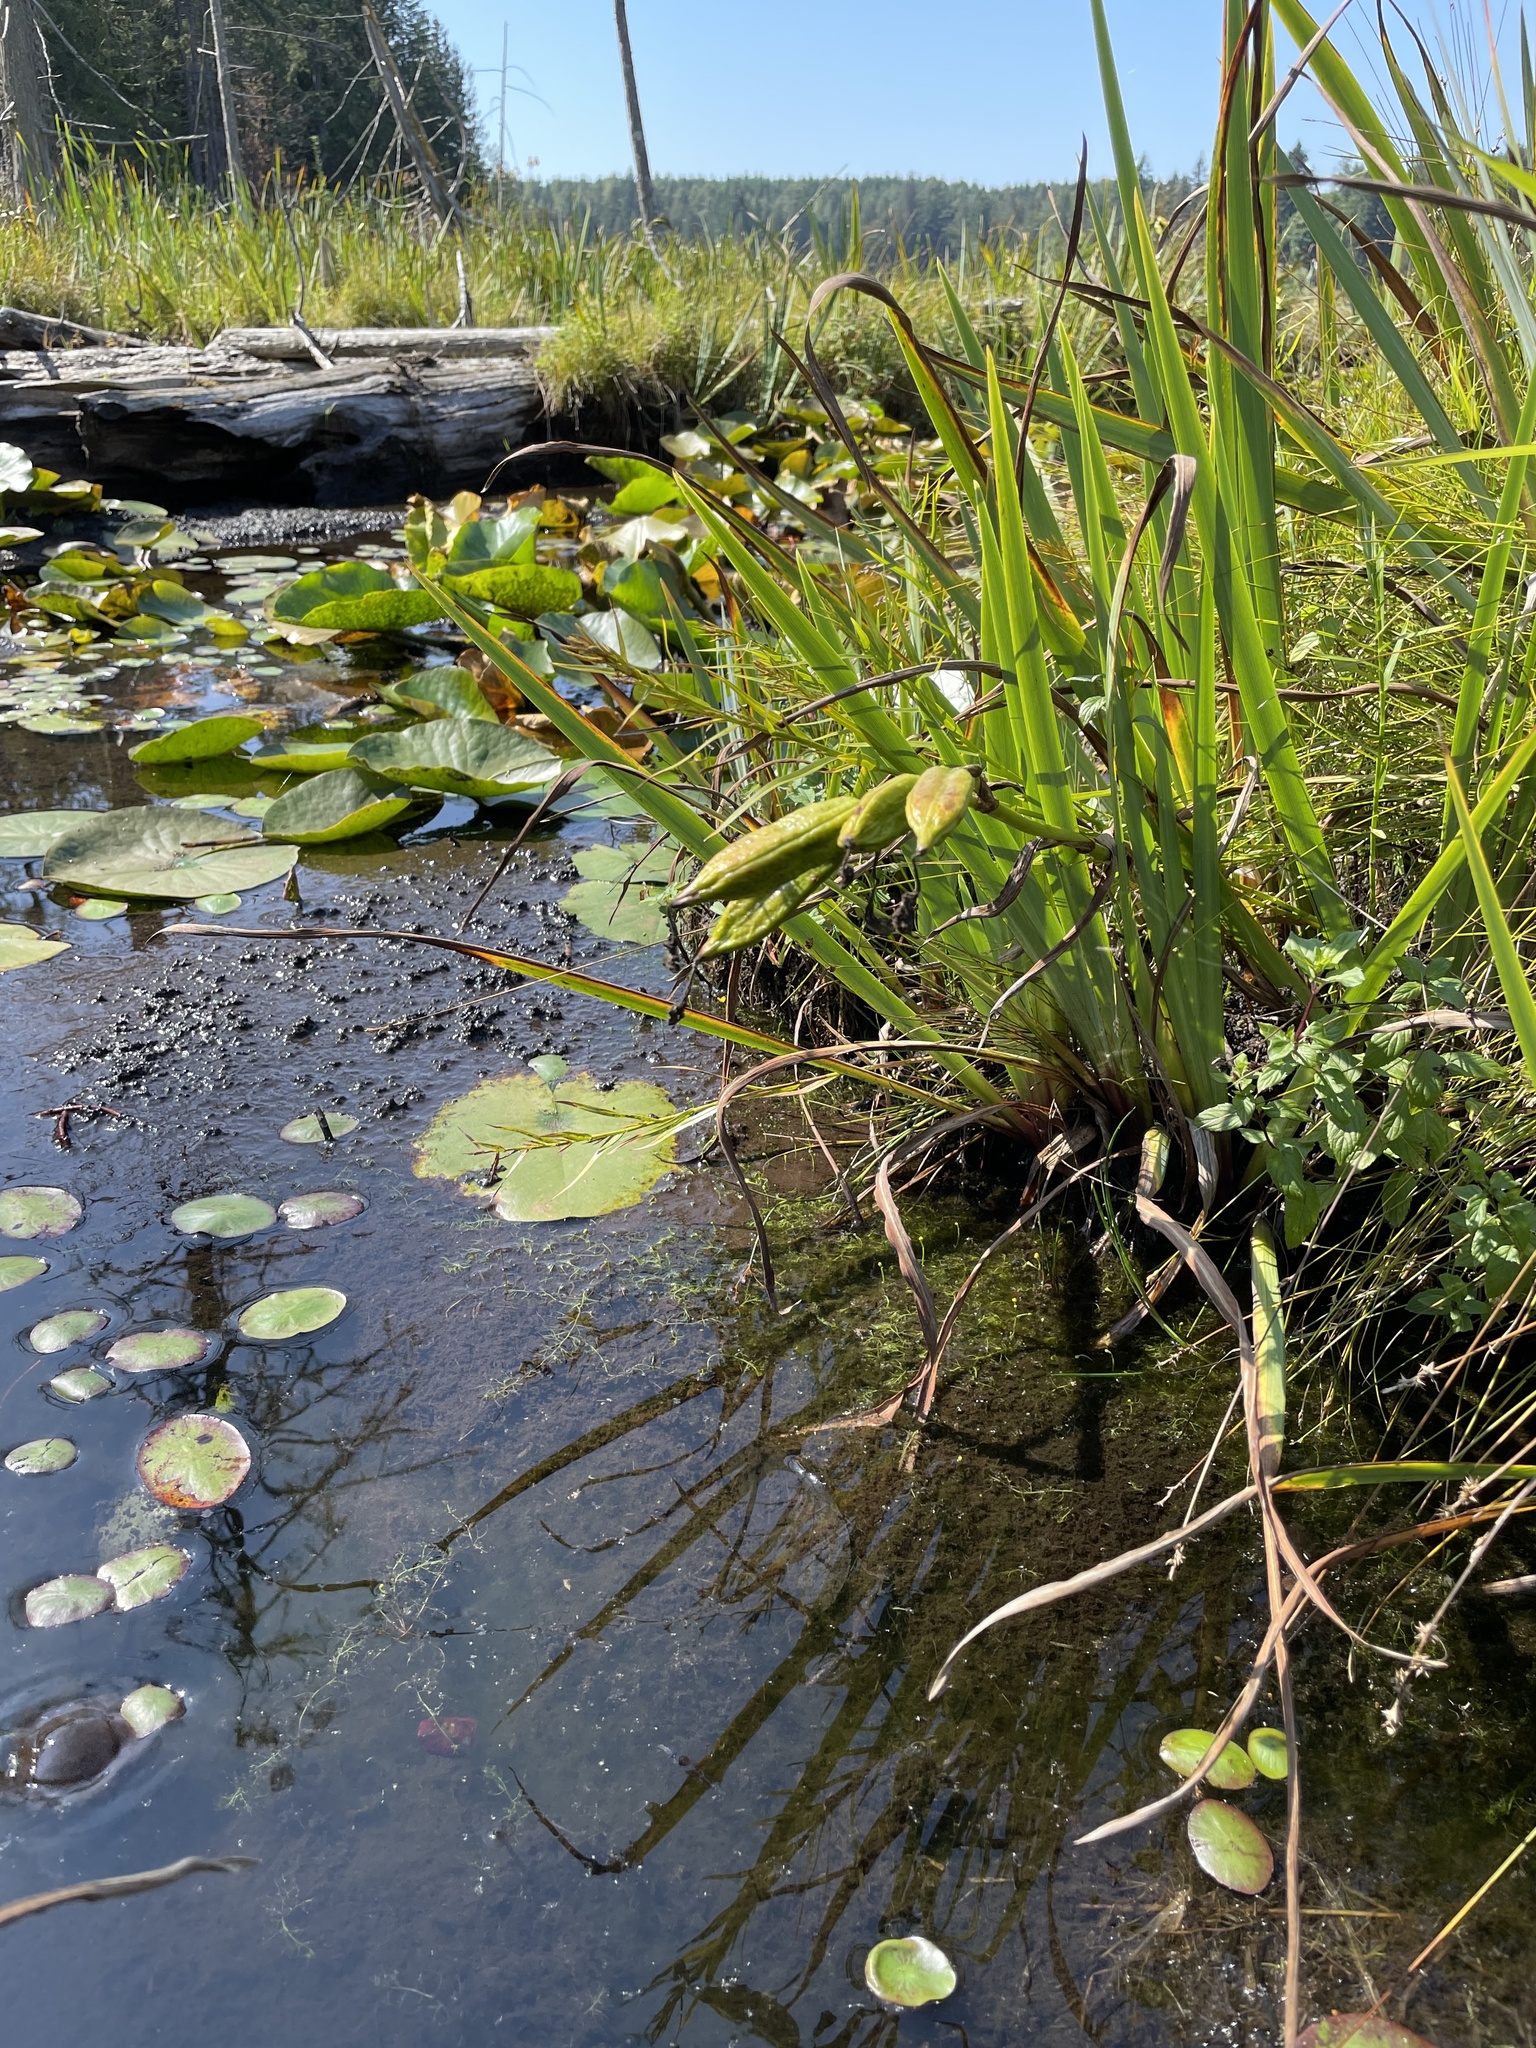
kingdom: Plantae
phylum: Tracheophyta
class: Magnoliopsida
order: Lamiales
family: Lentibulariaceae
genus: Utricularia
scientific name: Utricularia gibba
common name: Humped bladderwort
